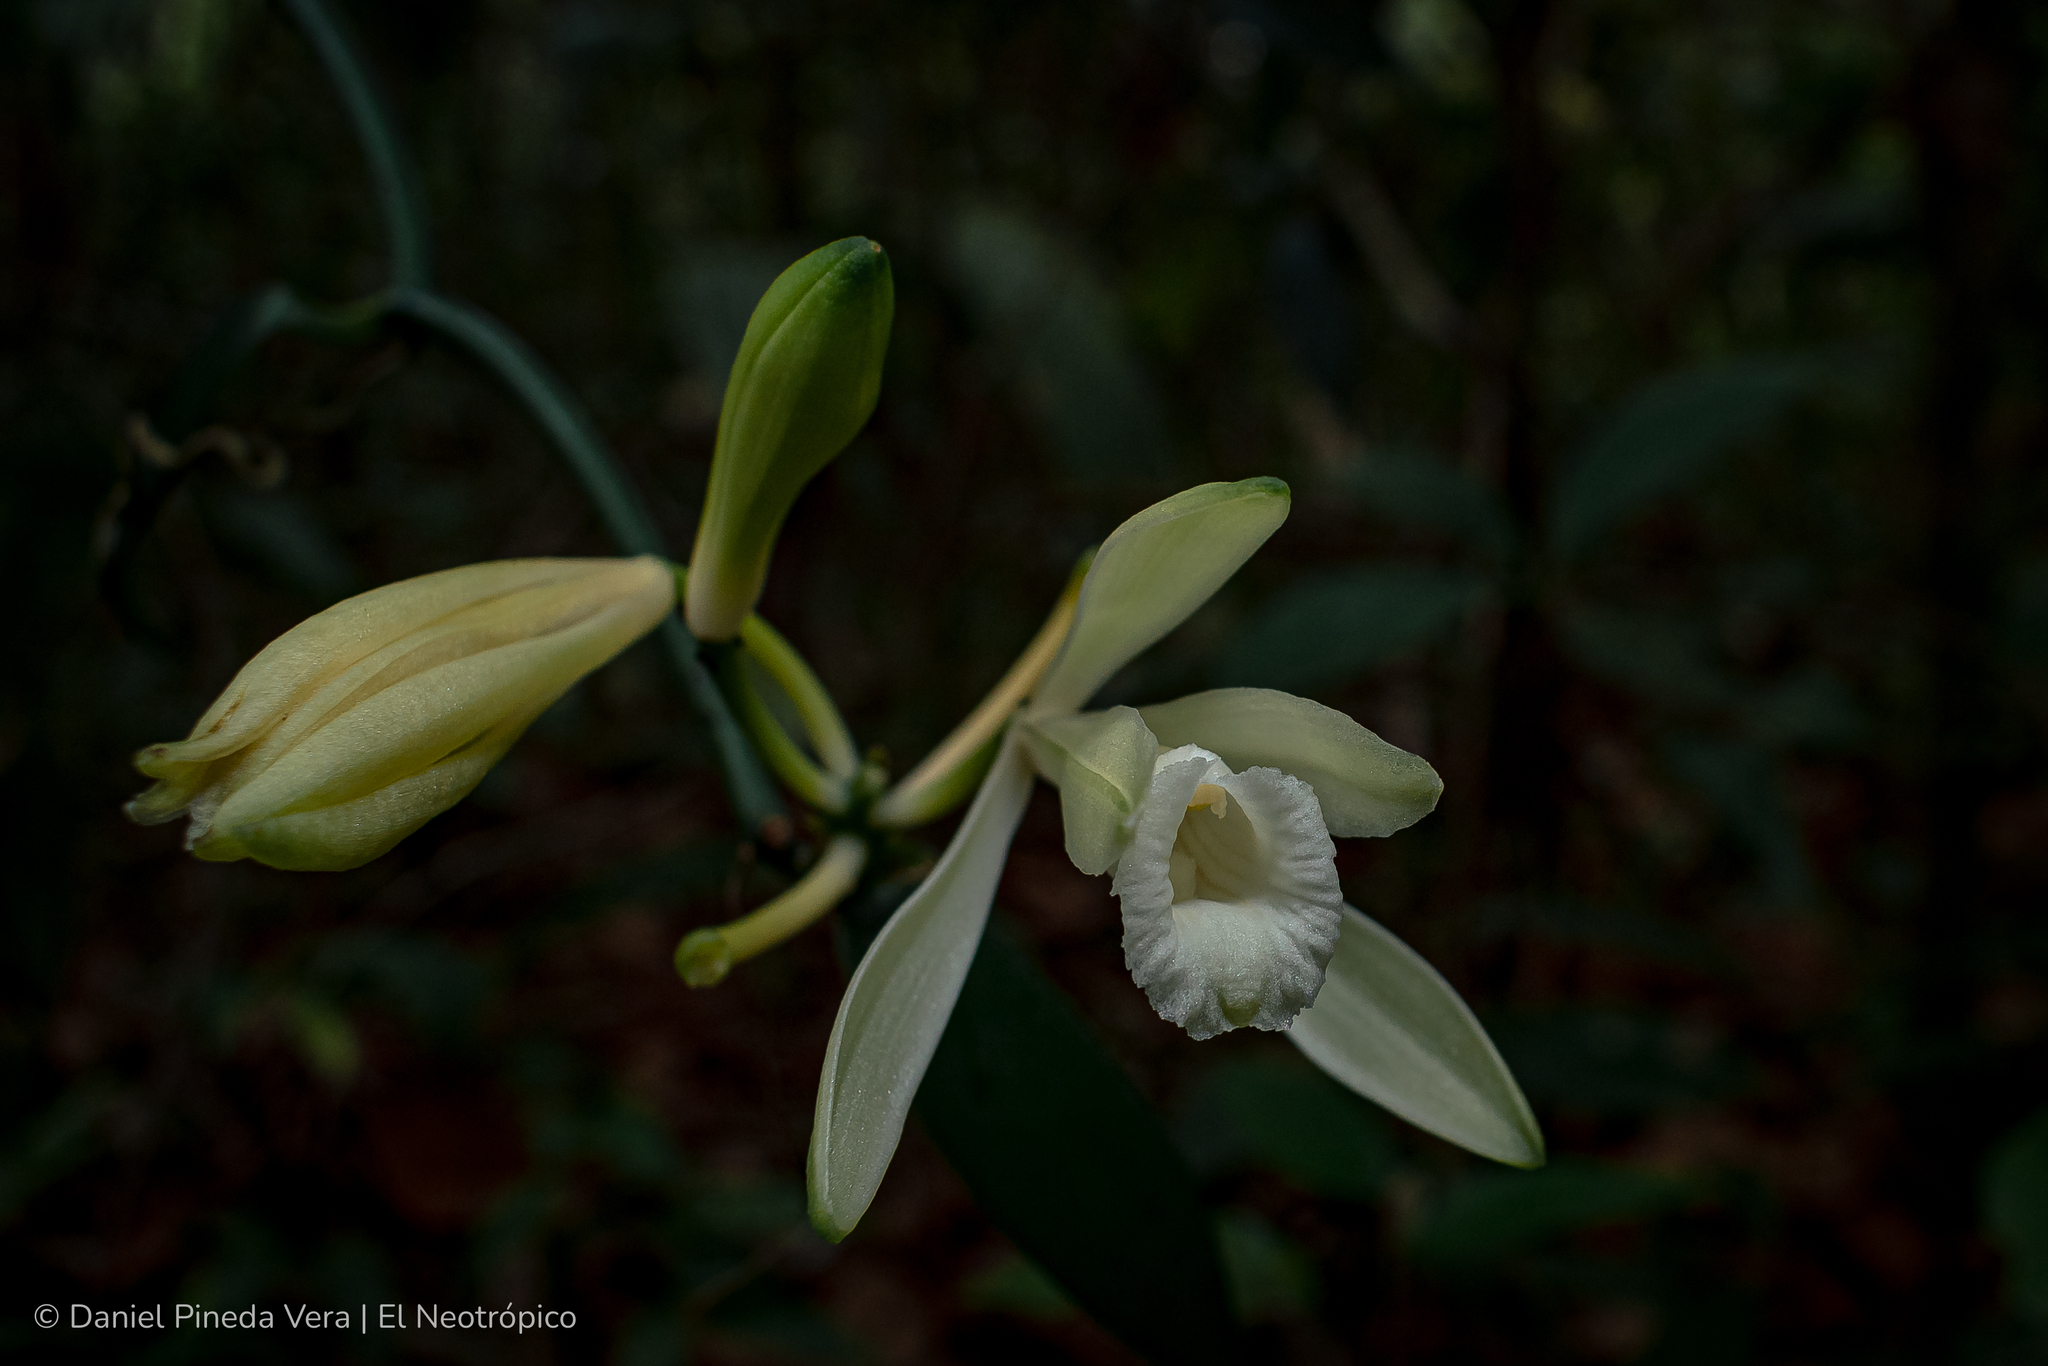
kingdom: Plantae
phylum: Tracheophyta
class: Liliopsida
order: Asparagales
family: Orchidaceae
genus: Vanilla
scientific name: Vanilla hartii
